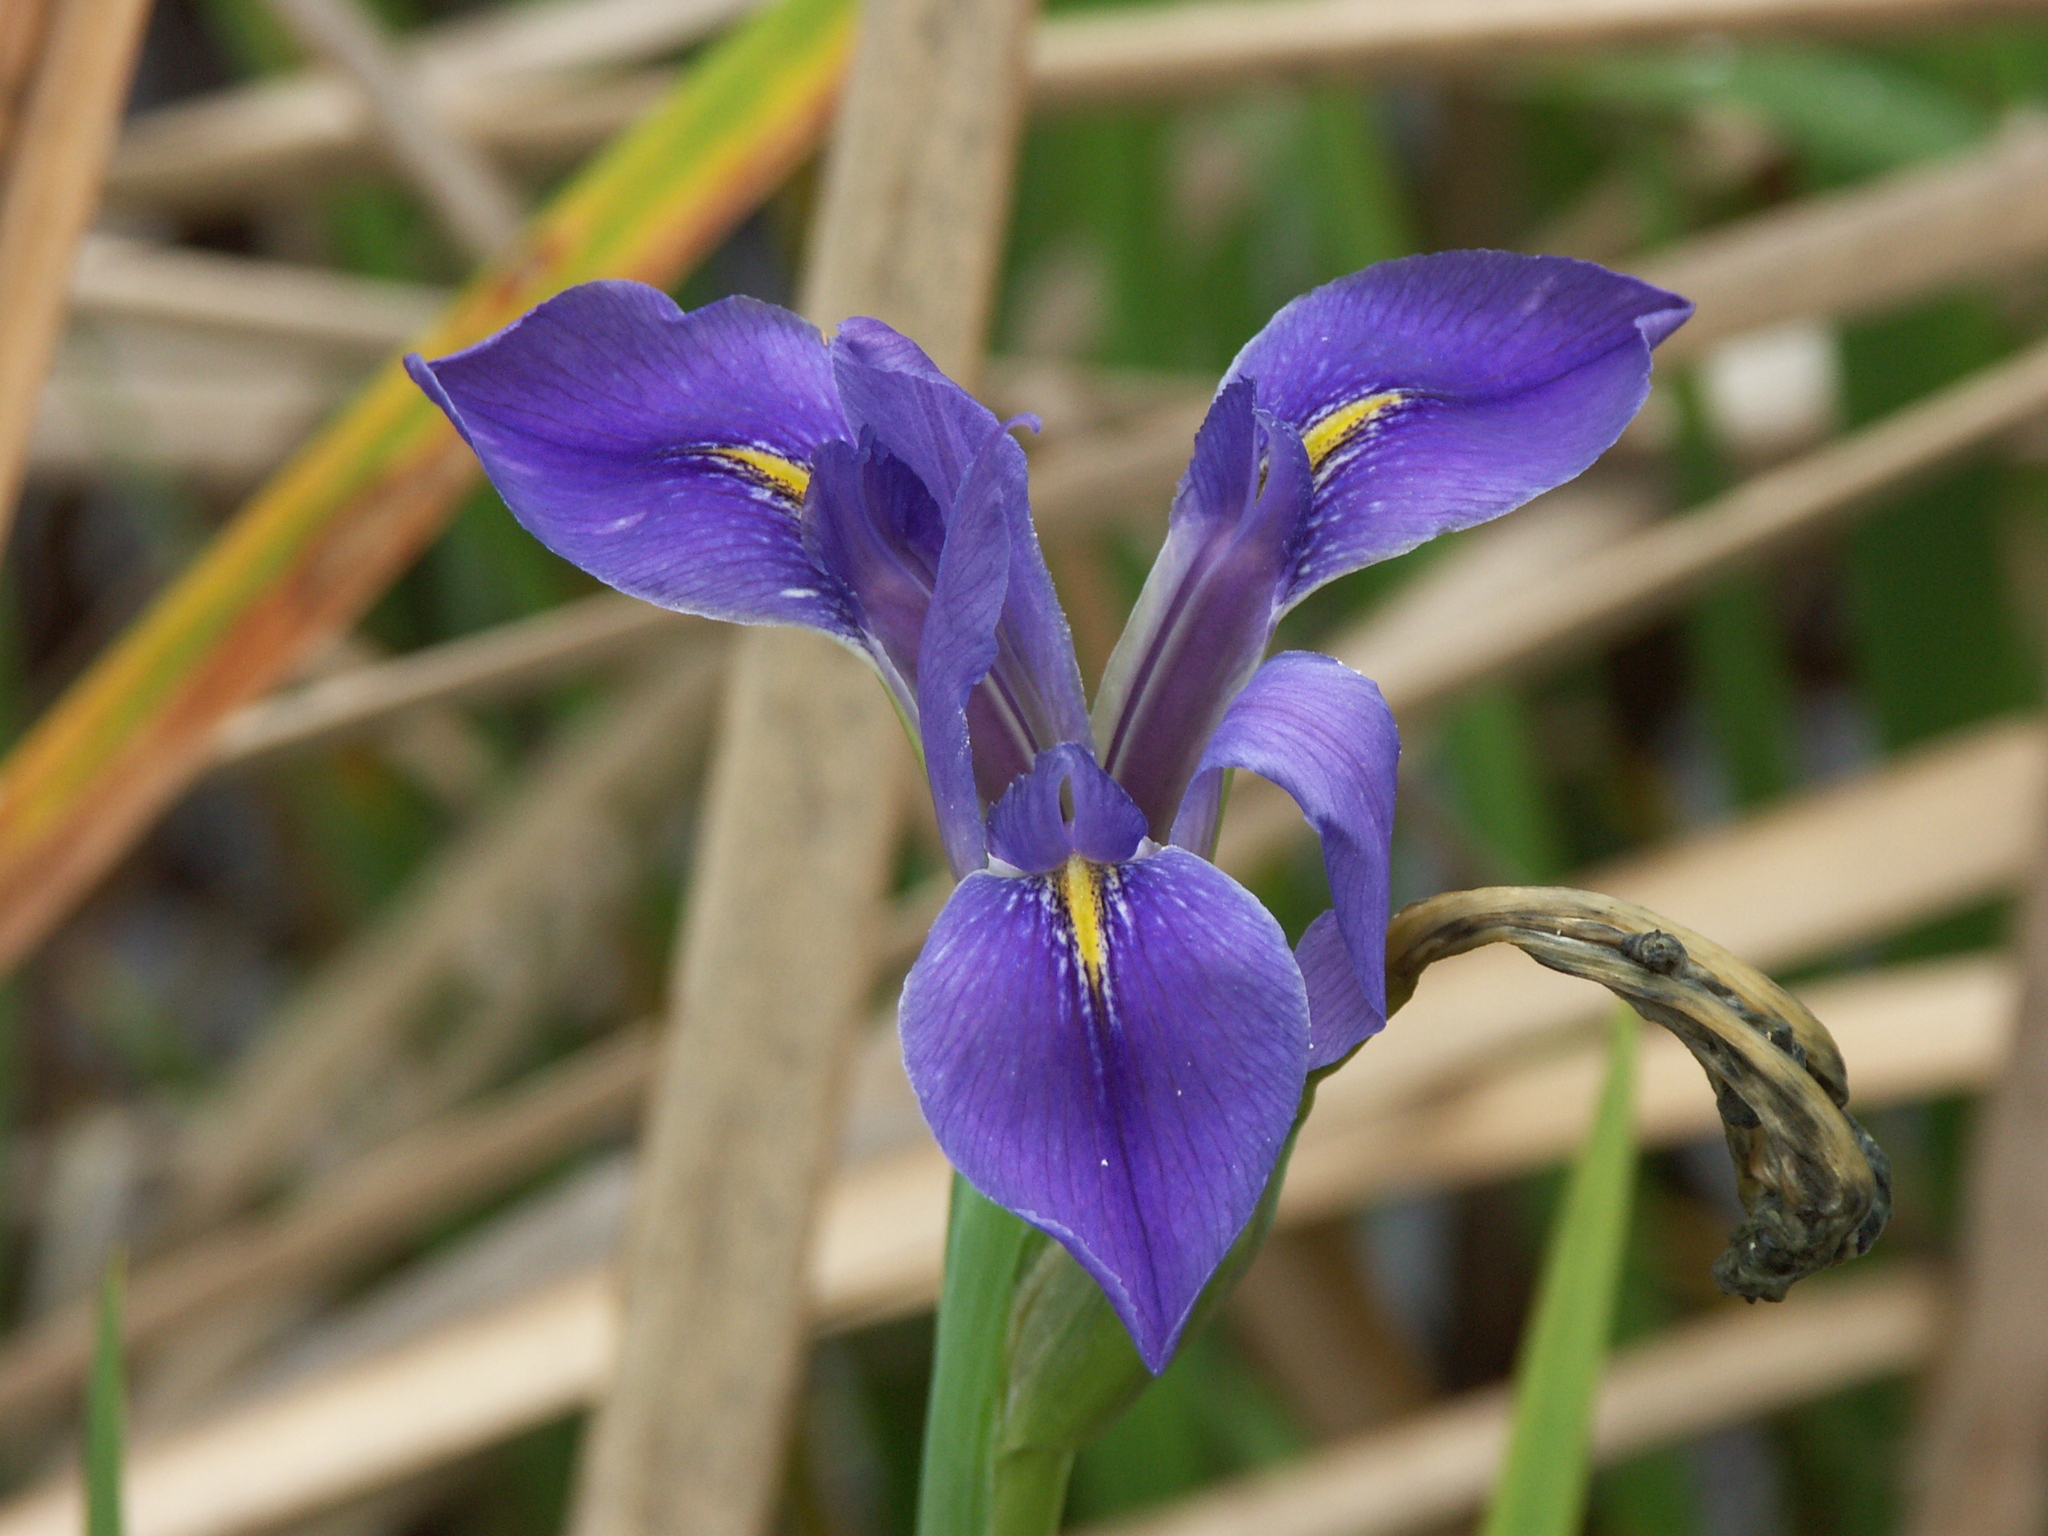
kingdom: Plantae
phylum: Tracheophyta
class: Liliopsida
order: Asparagales
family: Iridaceae
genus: Iris
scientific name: Iris savannarum
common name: Prairie iris
